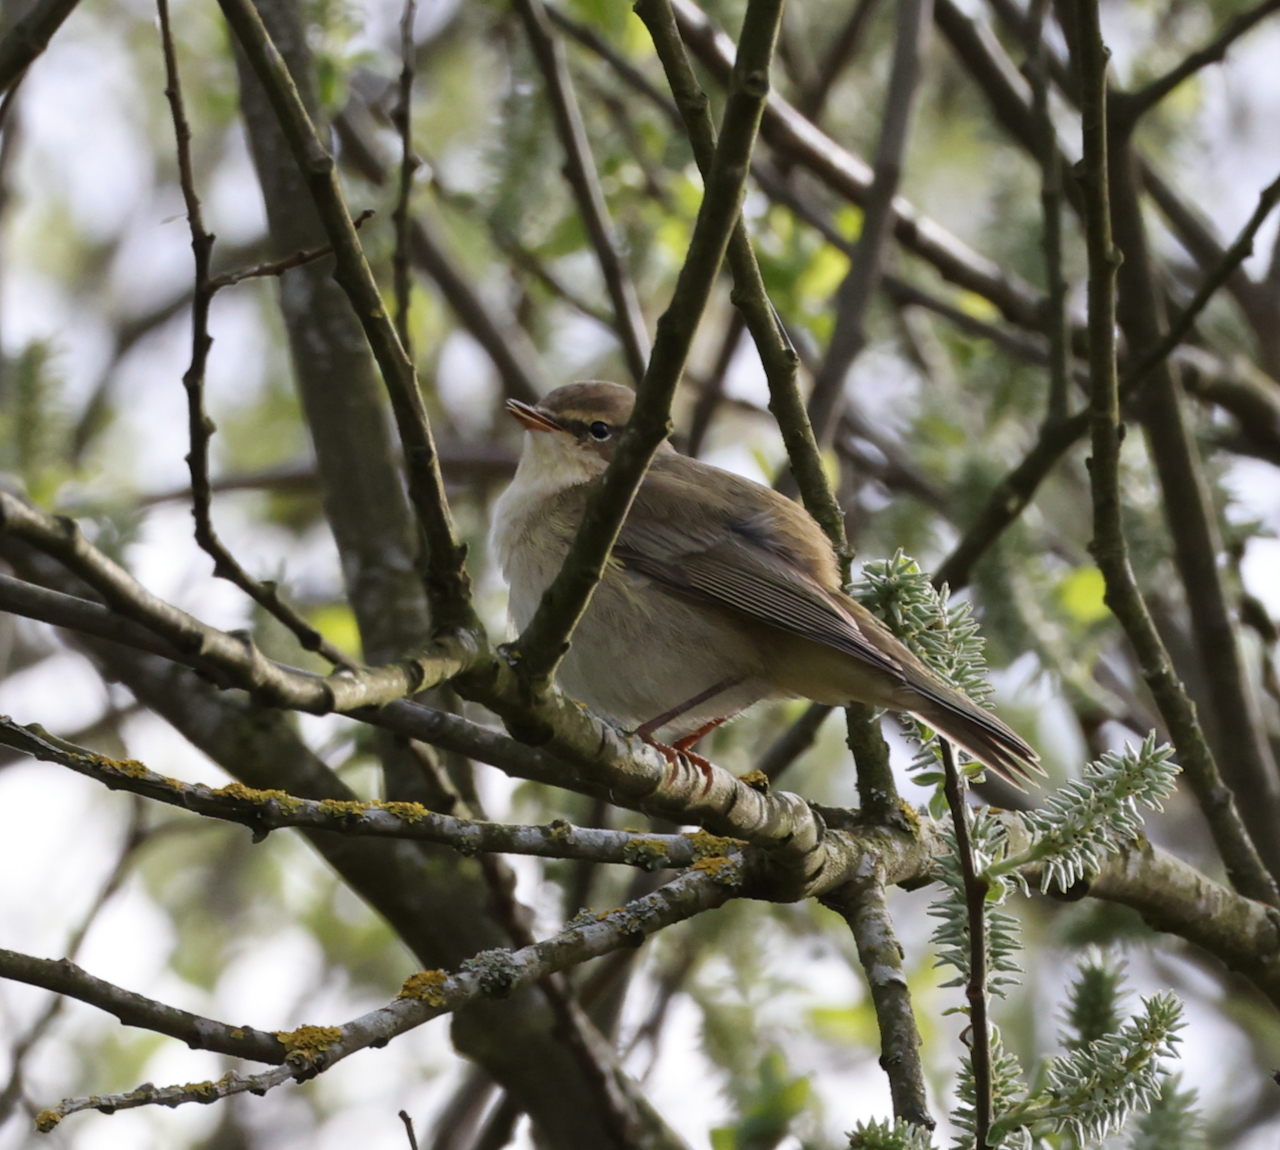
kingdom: Animalia
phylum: Chordata
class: Aves
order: Passeriformes
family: Phylloscopidae
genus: Phylloscopus
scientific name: Phylloscopus collybita
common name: Common chiffchaff
